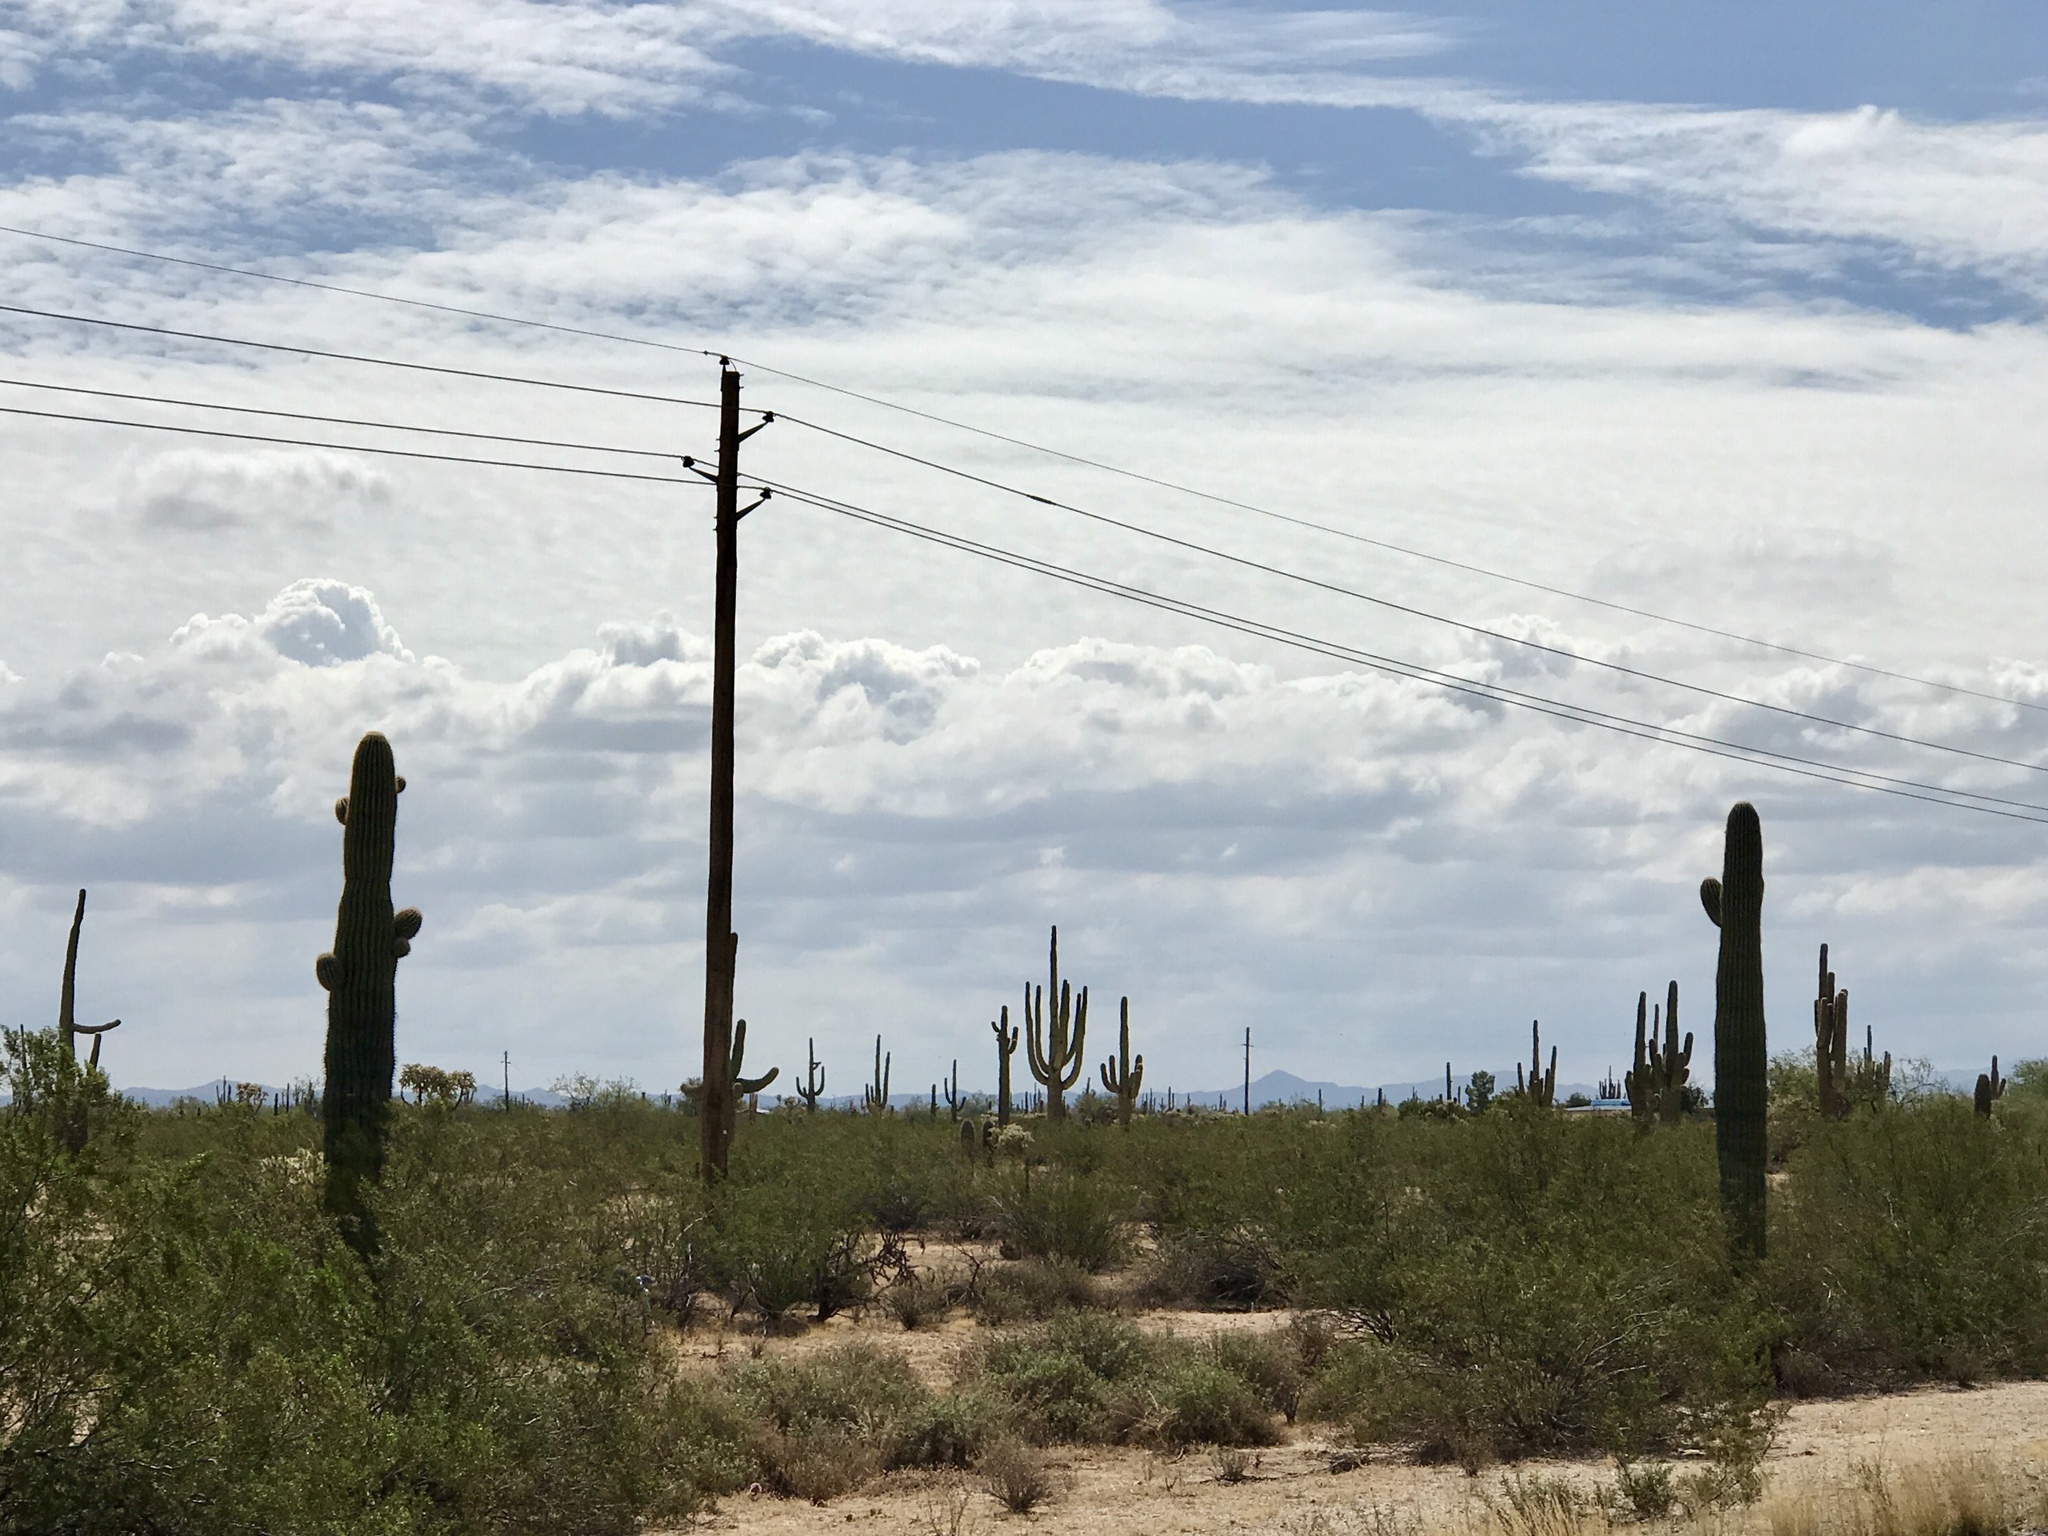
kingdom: Plantae
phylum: Tracheophyta
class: Magnoliopsida
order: Caryophyllales
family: Cactaceae
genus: Carnegiea
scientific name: Carnegiea gigantea
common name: Saguaro
